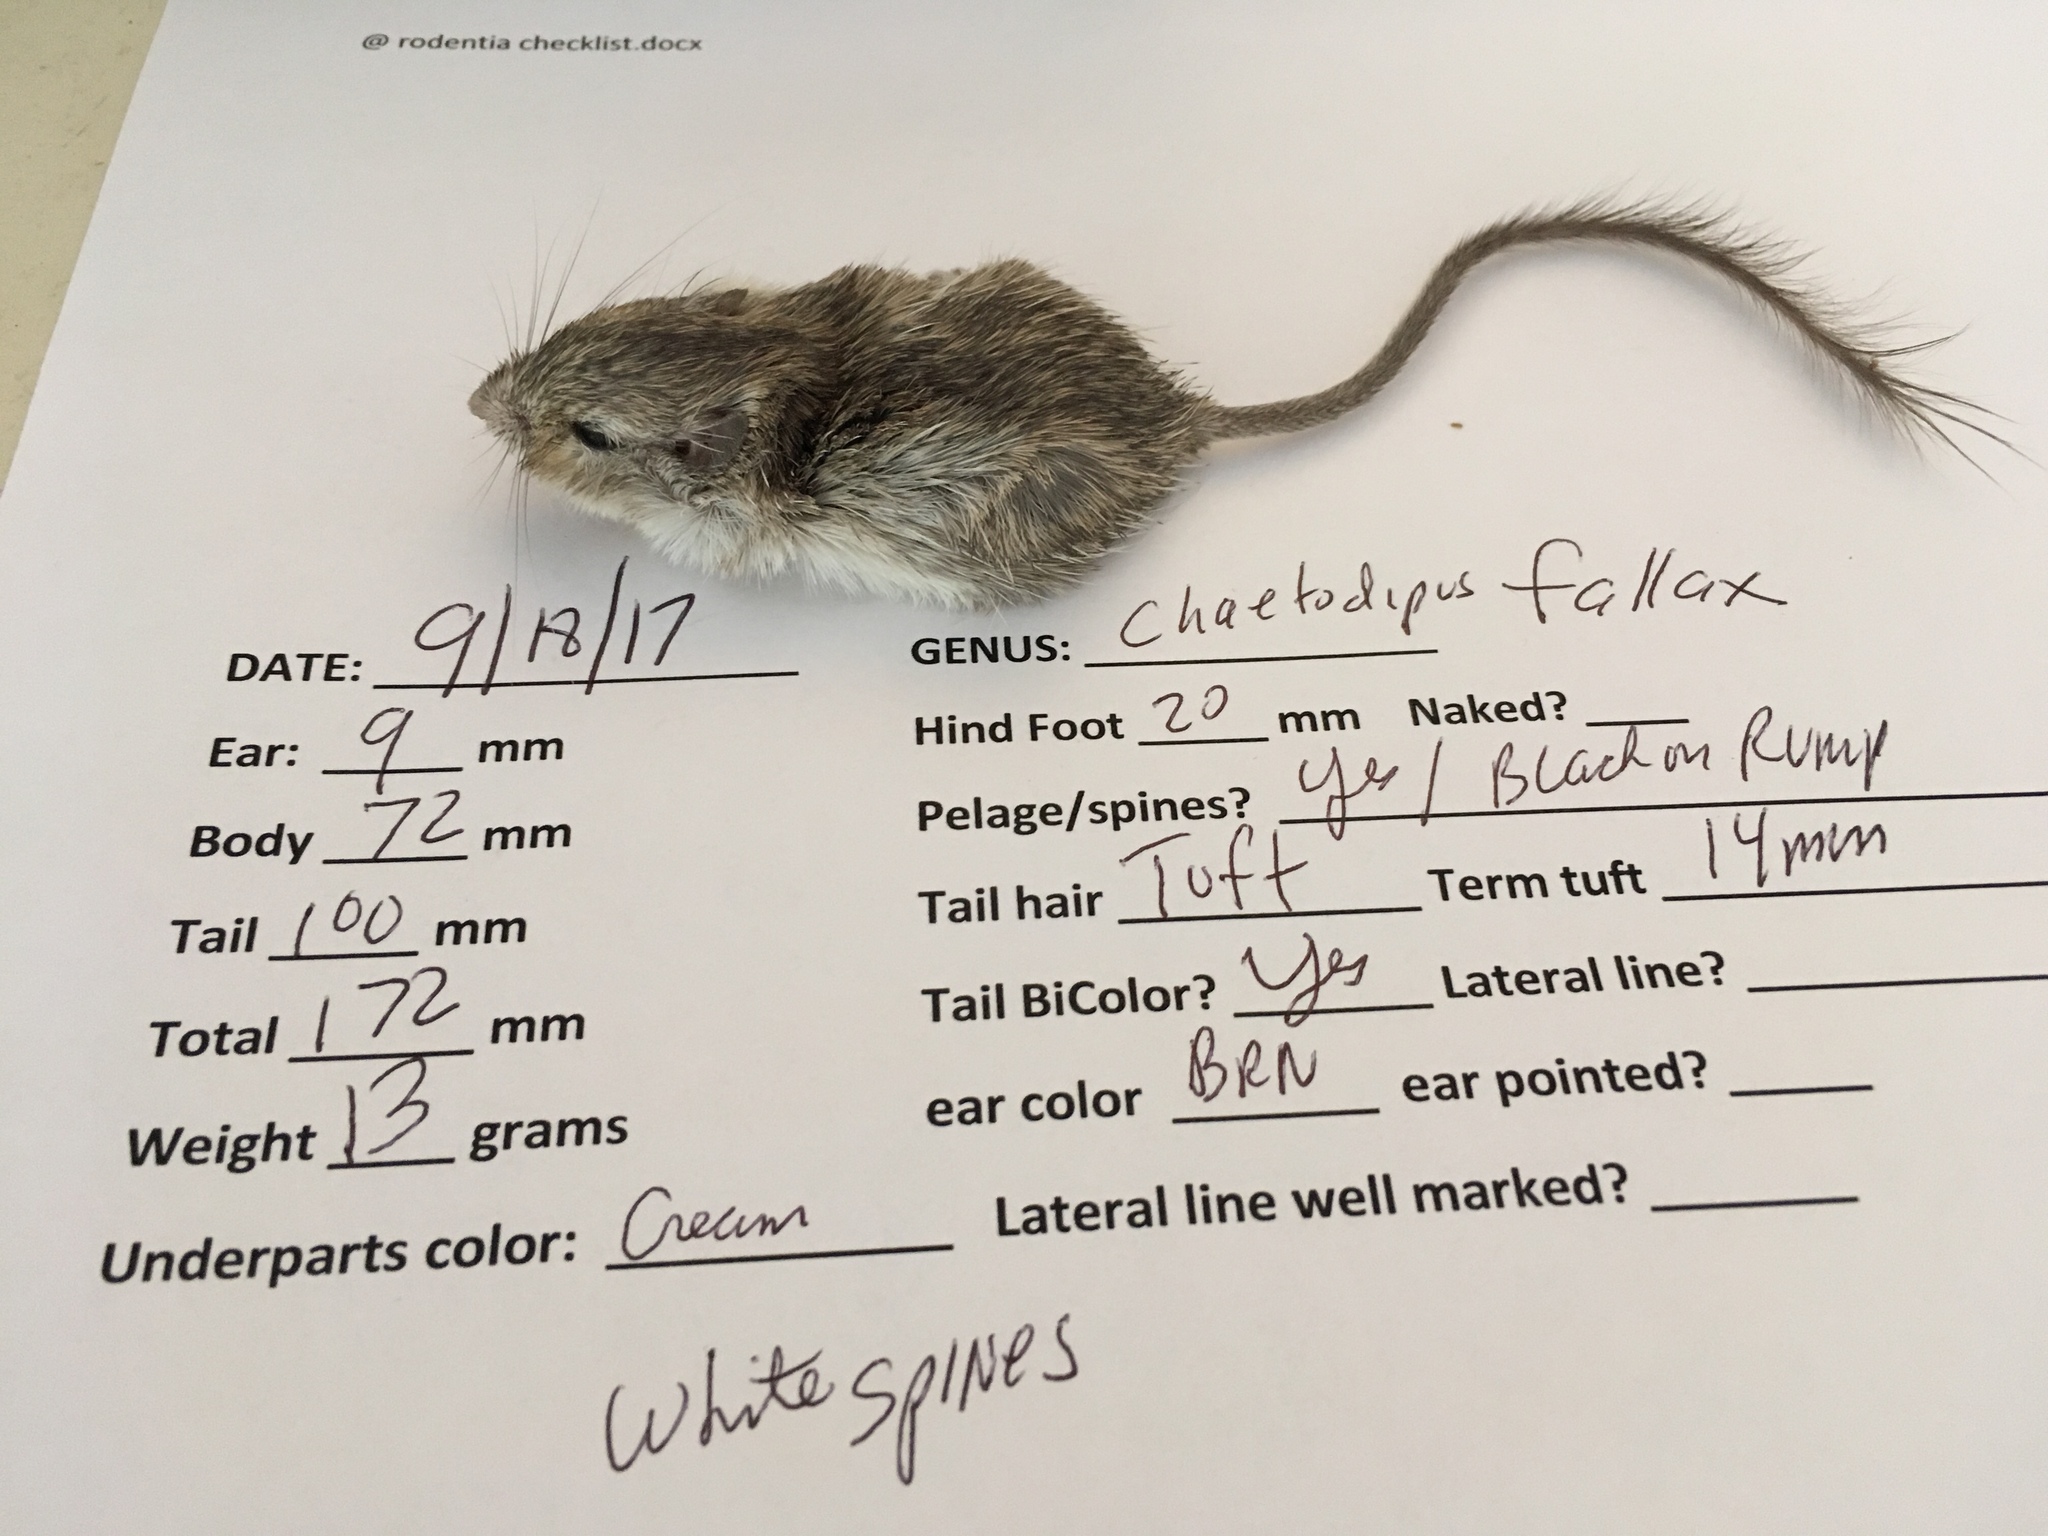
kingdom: Animalia
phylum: Chordata
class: Mammalia
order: Rodentia
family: Heteromyidae
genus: Chaetodipus
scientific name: Chaetodipus fallax
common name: San diego pocket mouse
